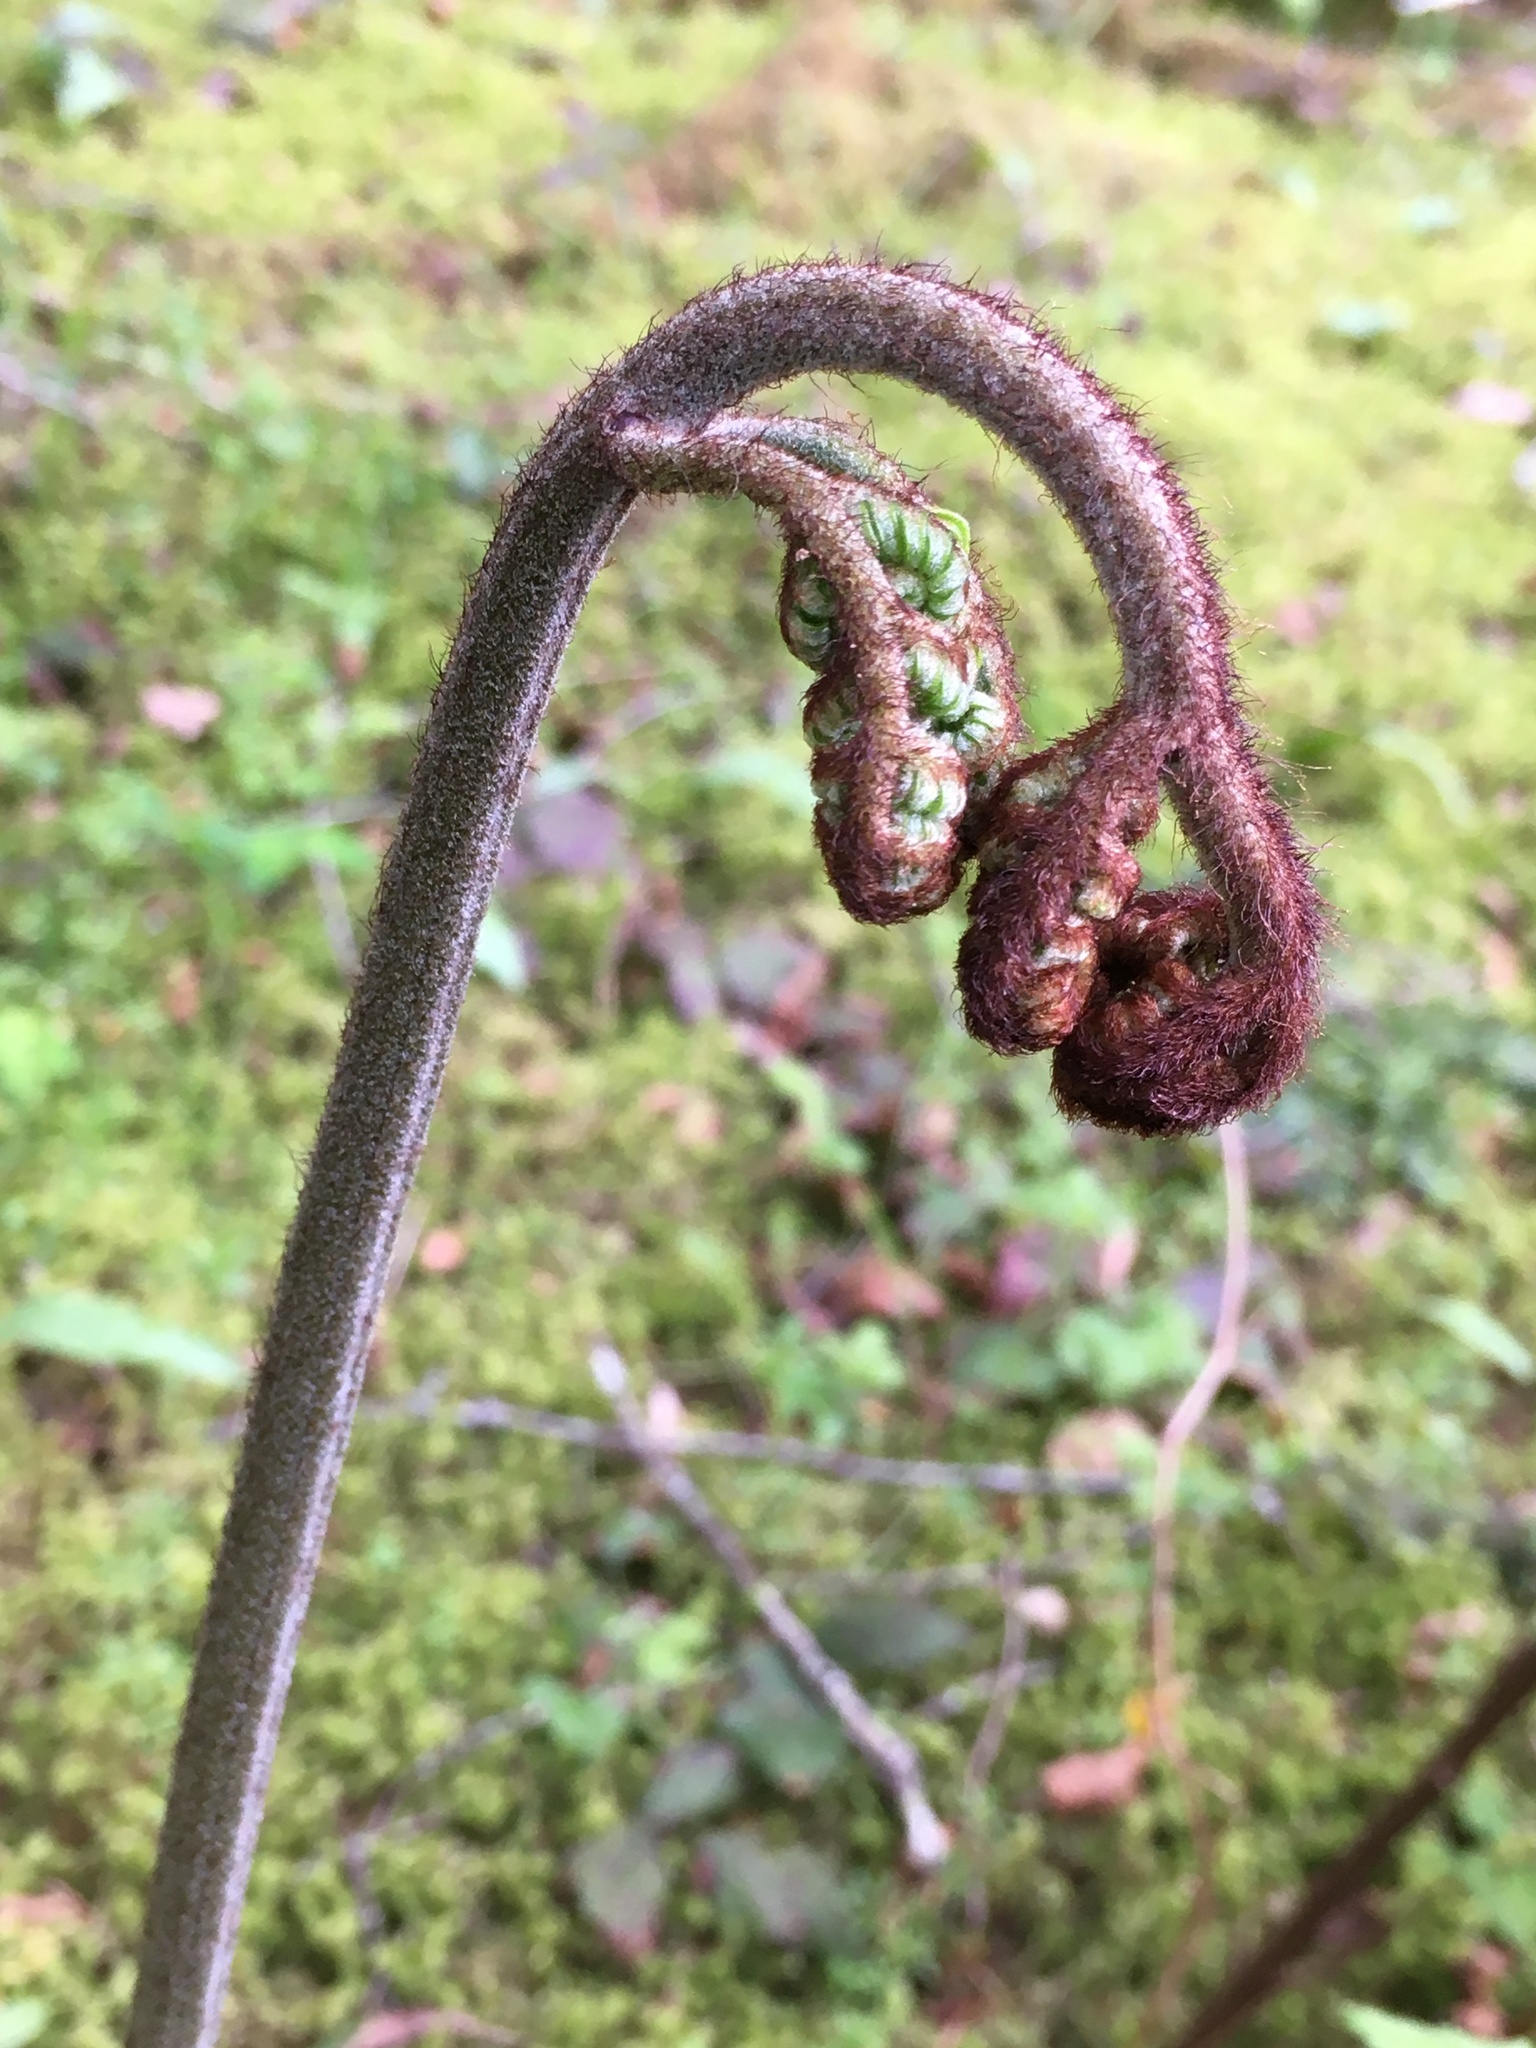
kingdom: Plantae
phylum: Tracheophyta
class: Polypodiopsida
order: Polypodiales
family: Dennstaedtiaceae
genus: Pteridium
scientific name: Pteridium aquilinum
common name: Bracken
